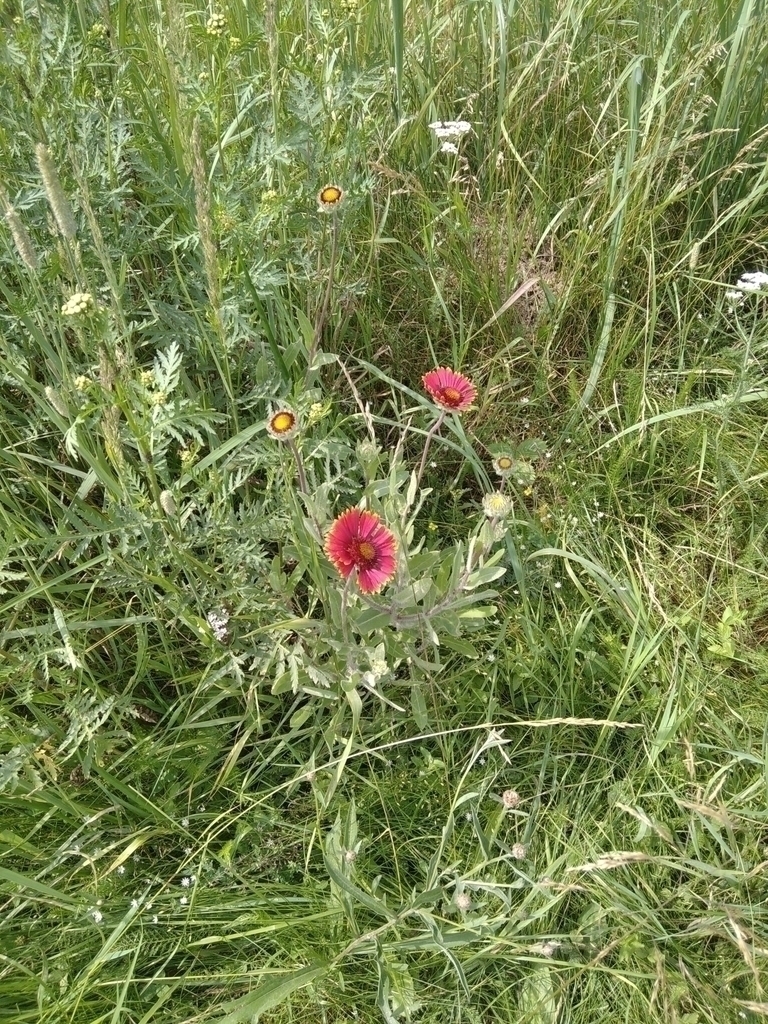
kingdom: Plantae
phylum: Tracheophyta
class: Magnoliopsida
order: Asterales
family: Asteraceae
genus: Gaillardia
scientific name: Gaillardia grandiflora
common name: Blanket flower
